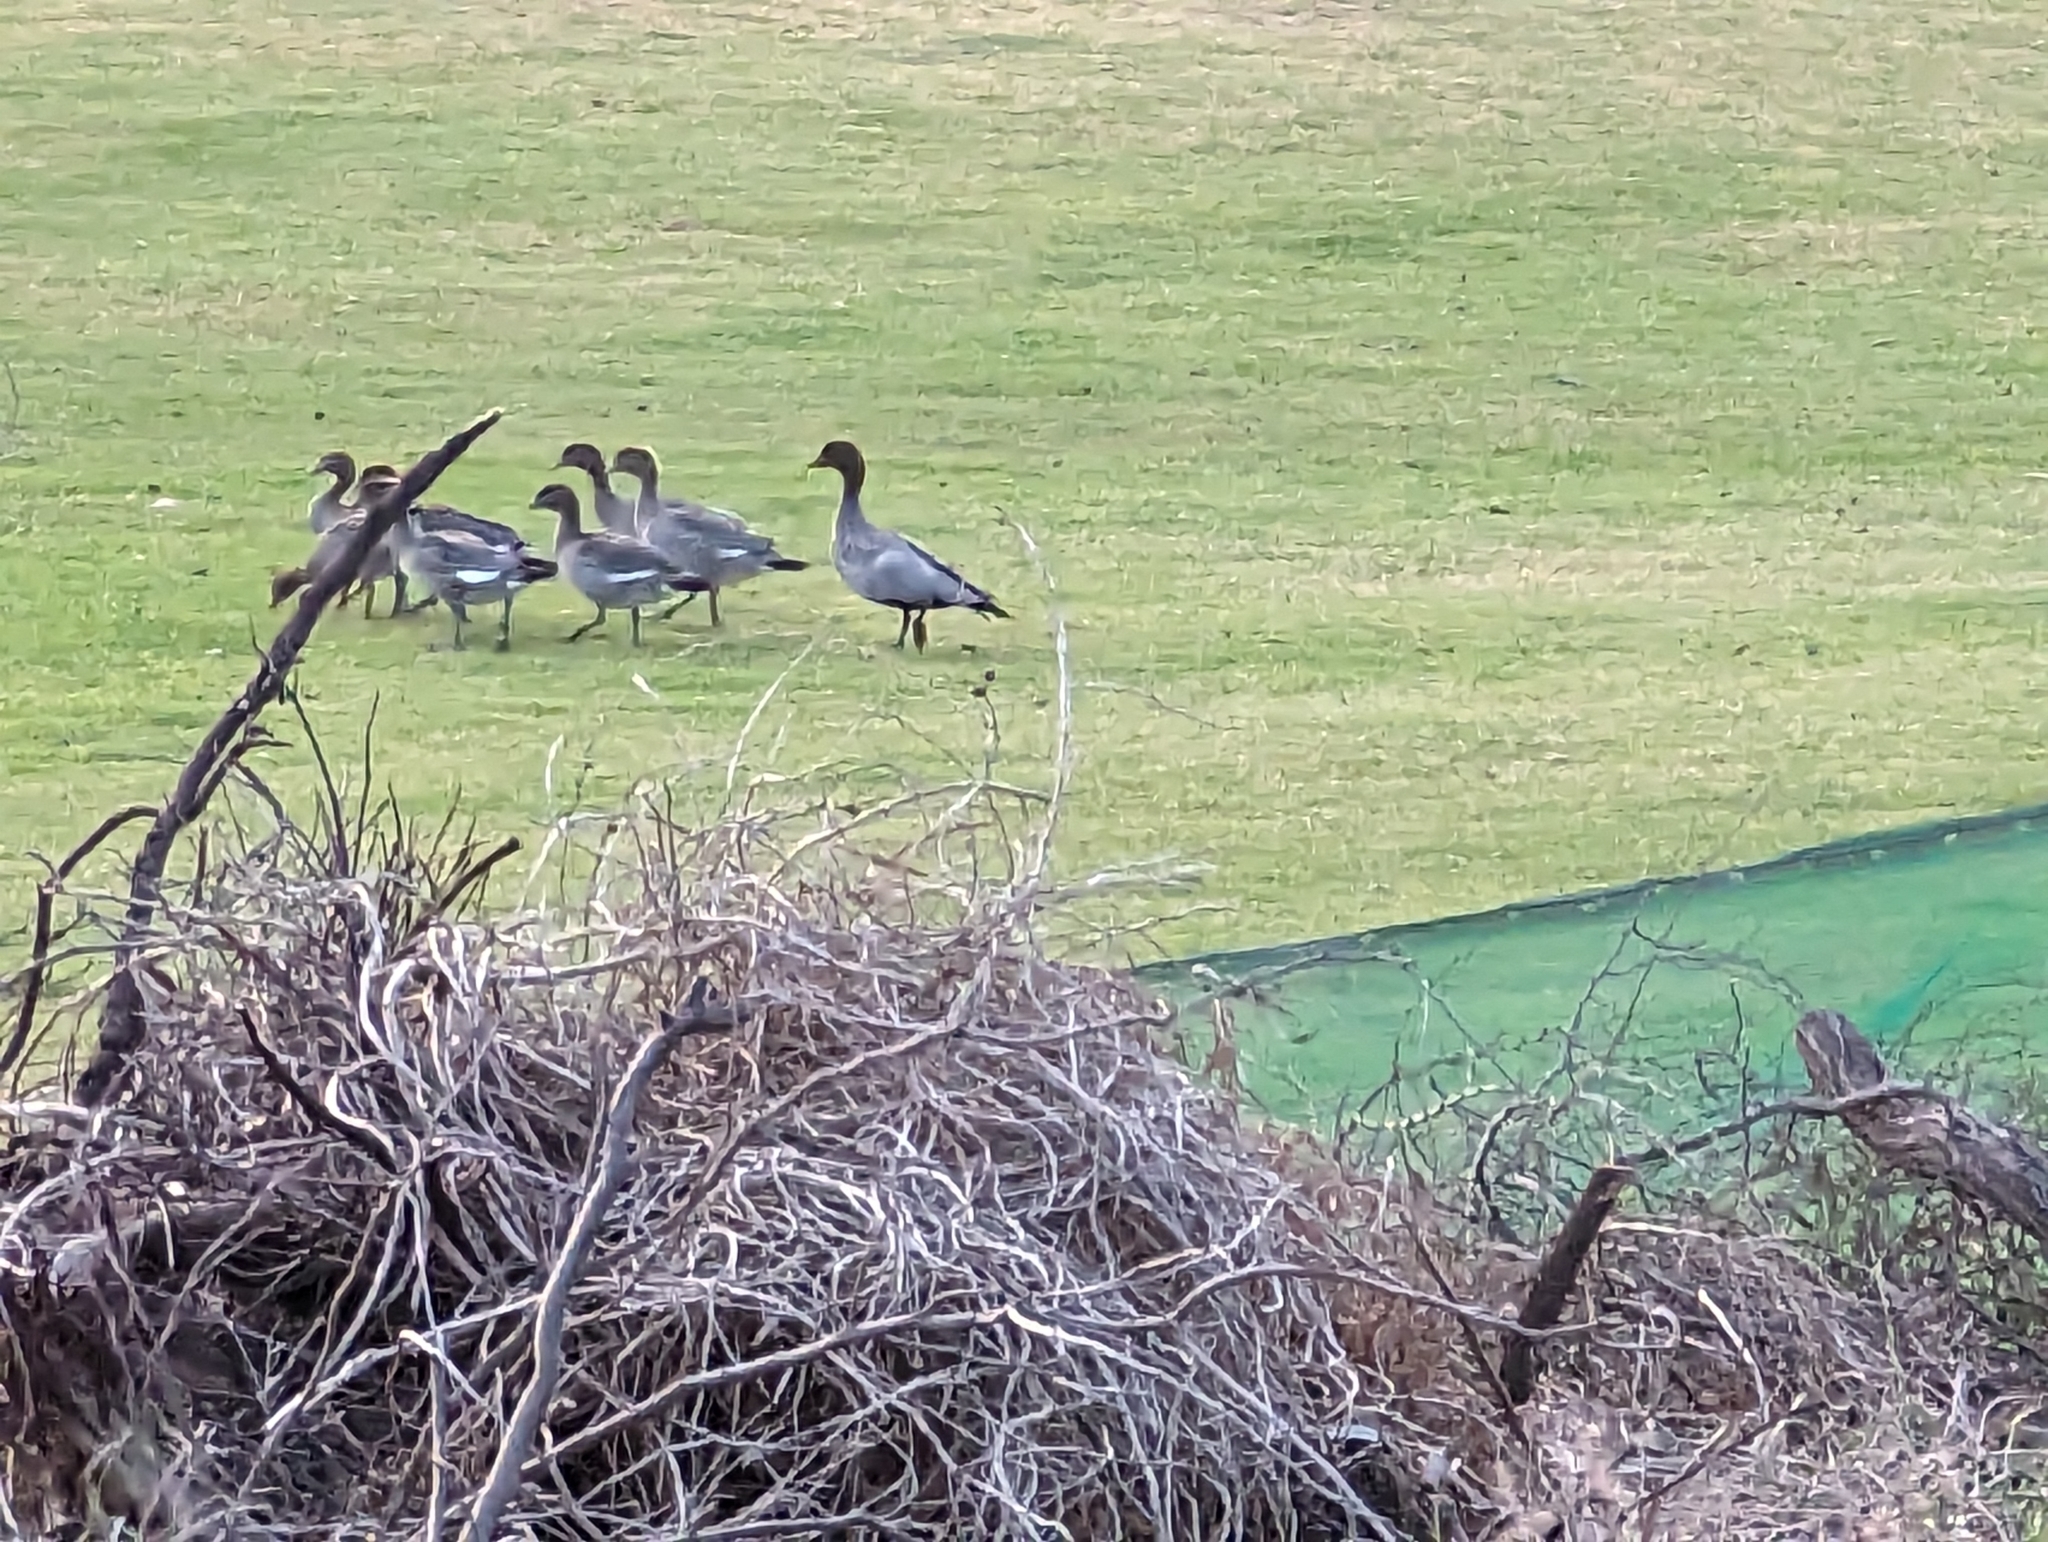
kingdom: Animalia
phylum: Chordata
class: Aves
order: Anseriformes
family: Anatidae
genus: Chenonetta
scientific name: Chenonetta jubata
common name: Maned duck
